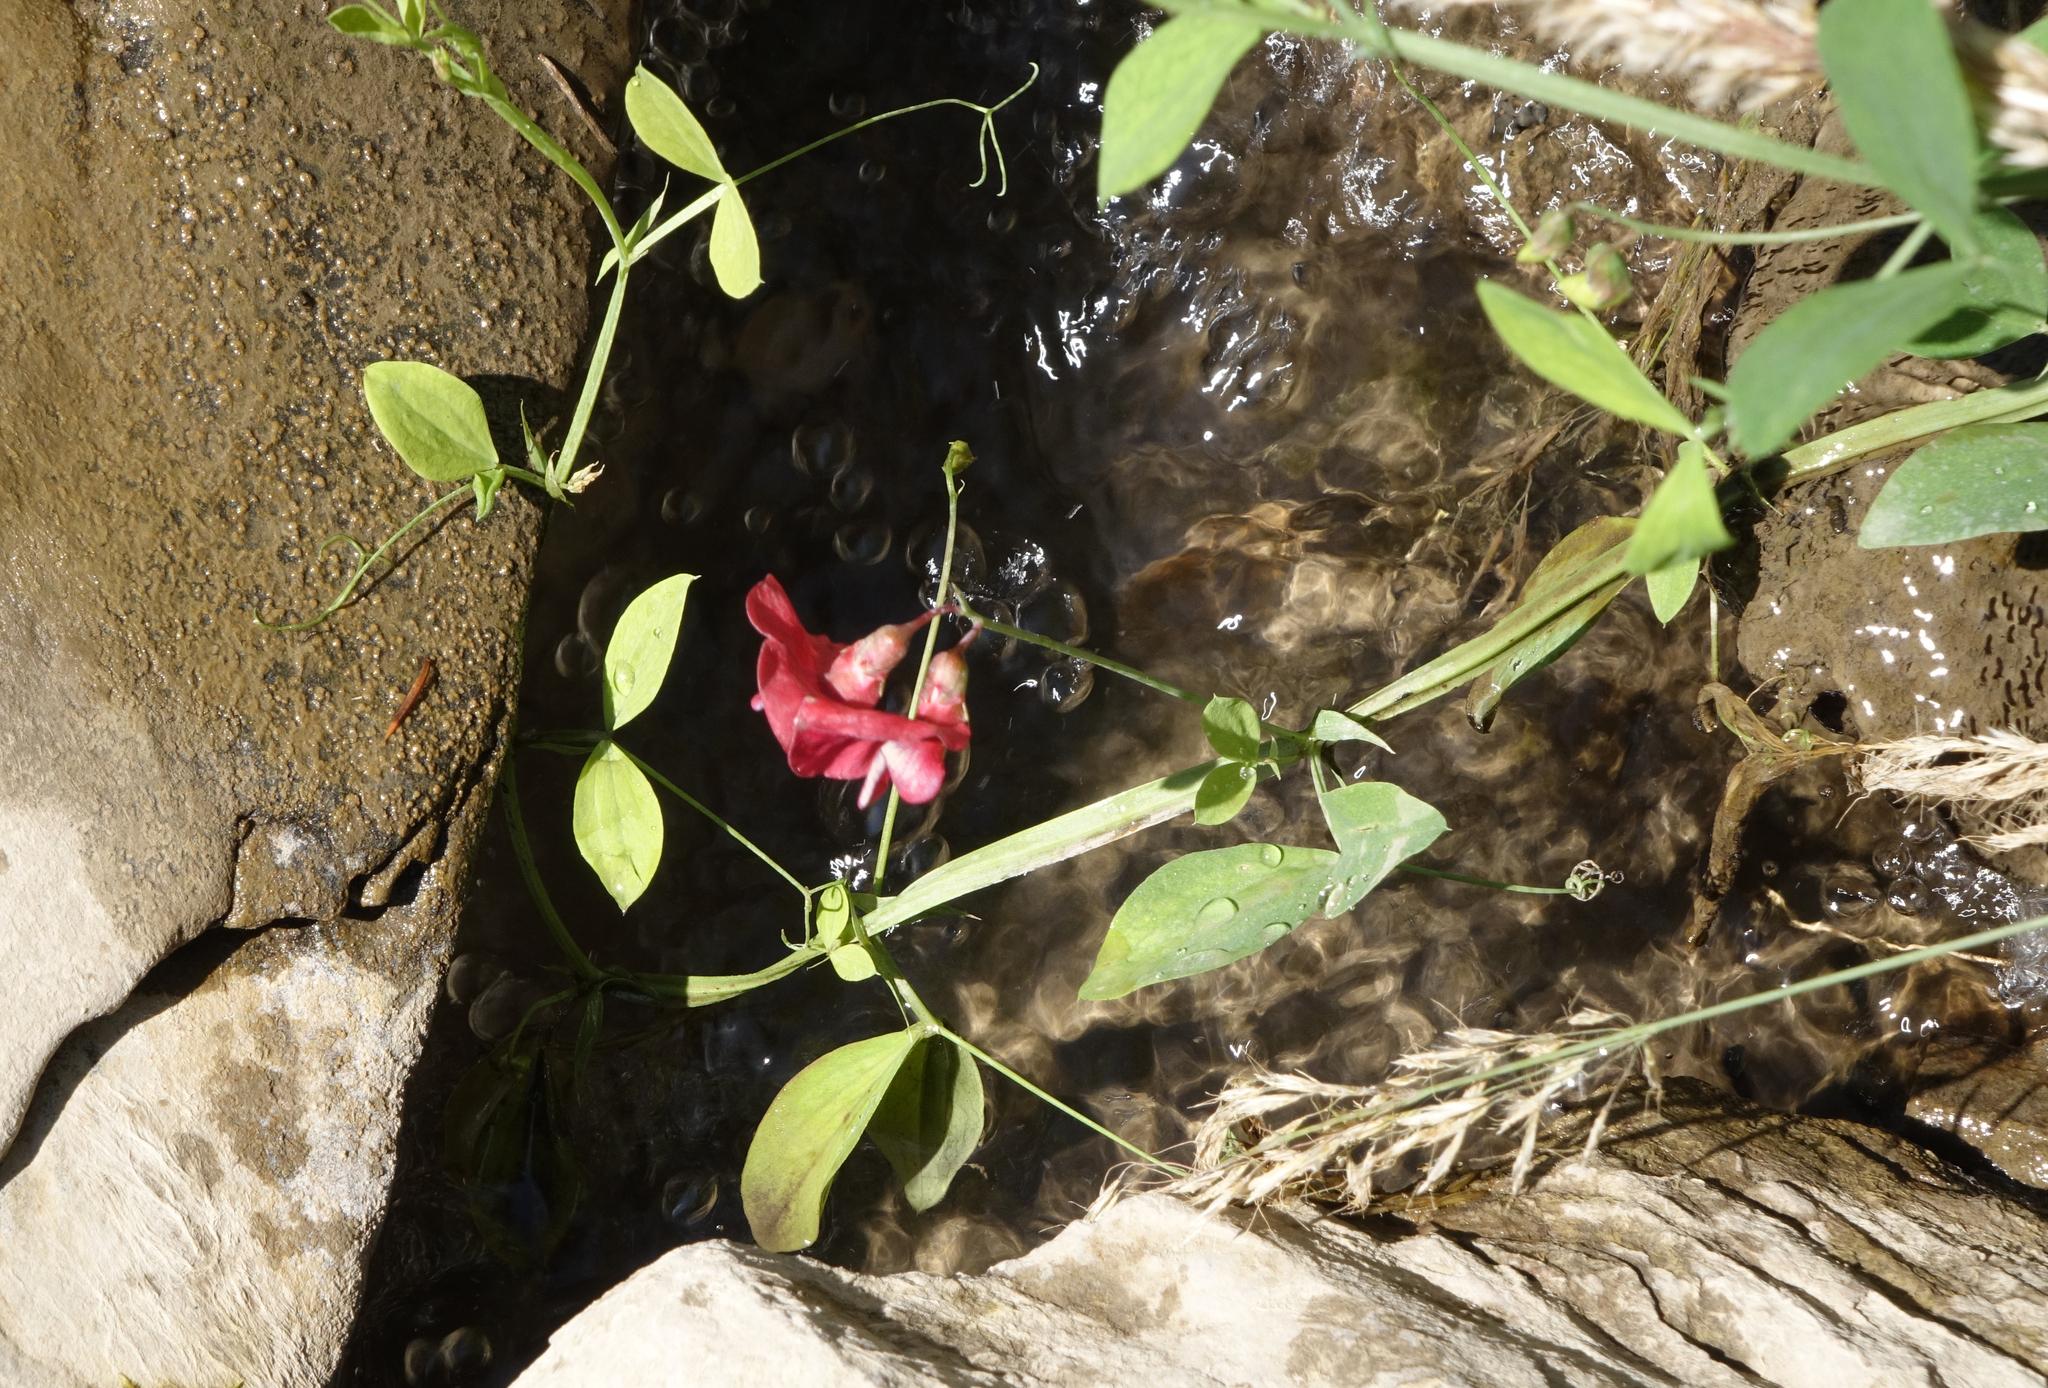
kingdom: Plantae
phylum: Tracheophyta
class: Magnoliopsida
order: Fabales
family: Fabaceae
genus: Lathyrus
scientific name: Lathyrus miniatus
